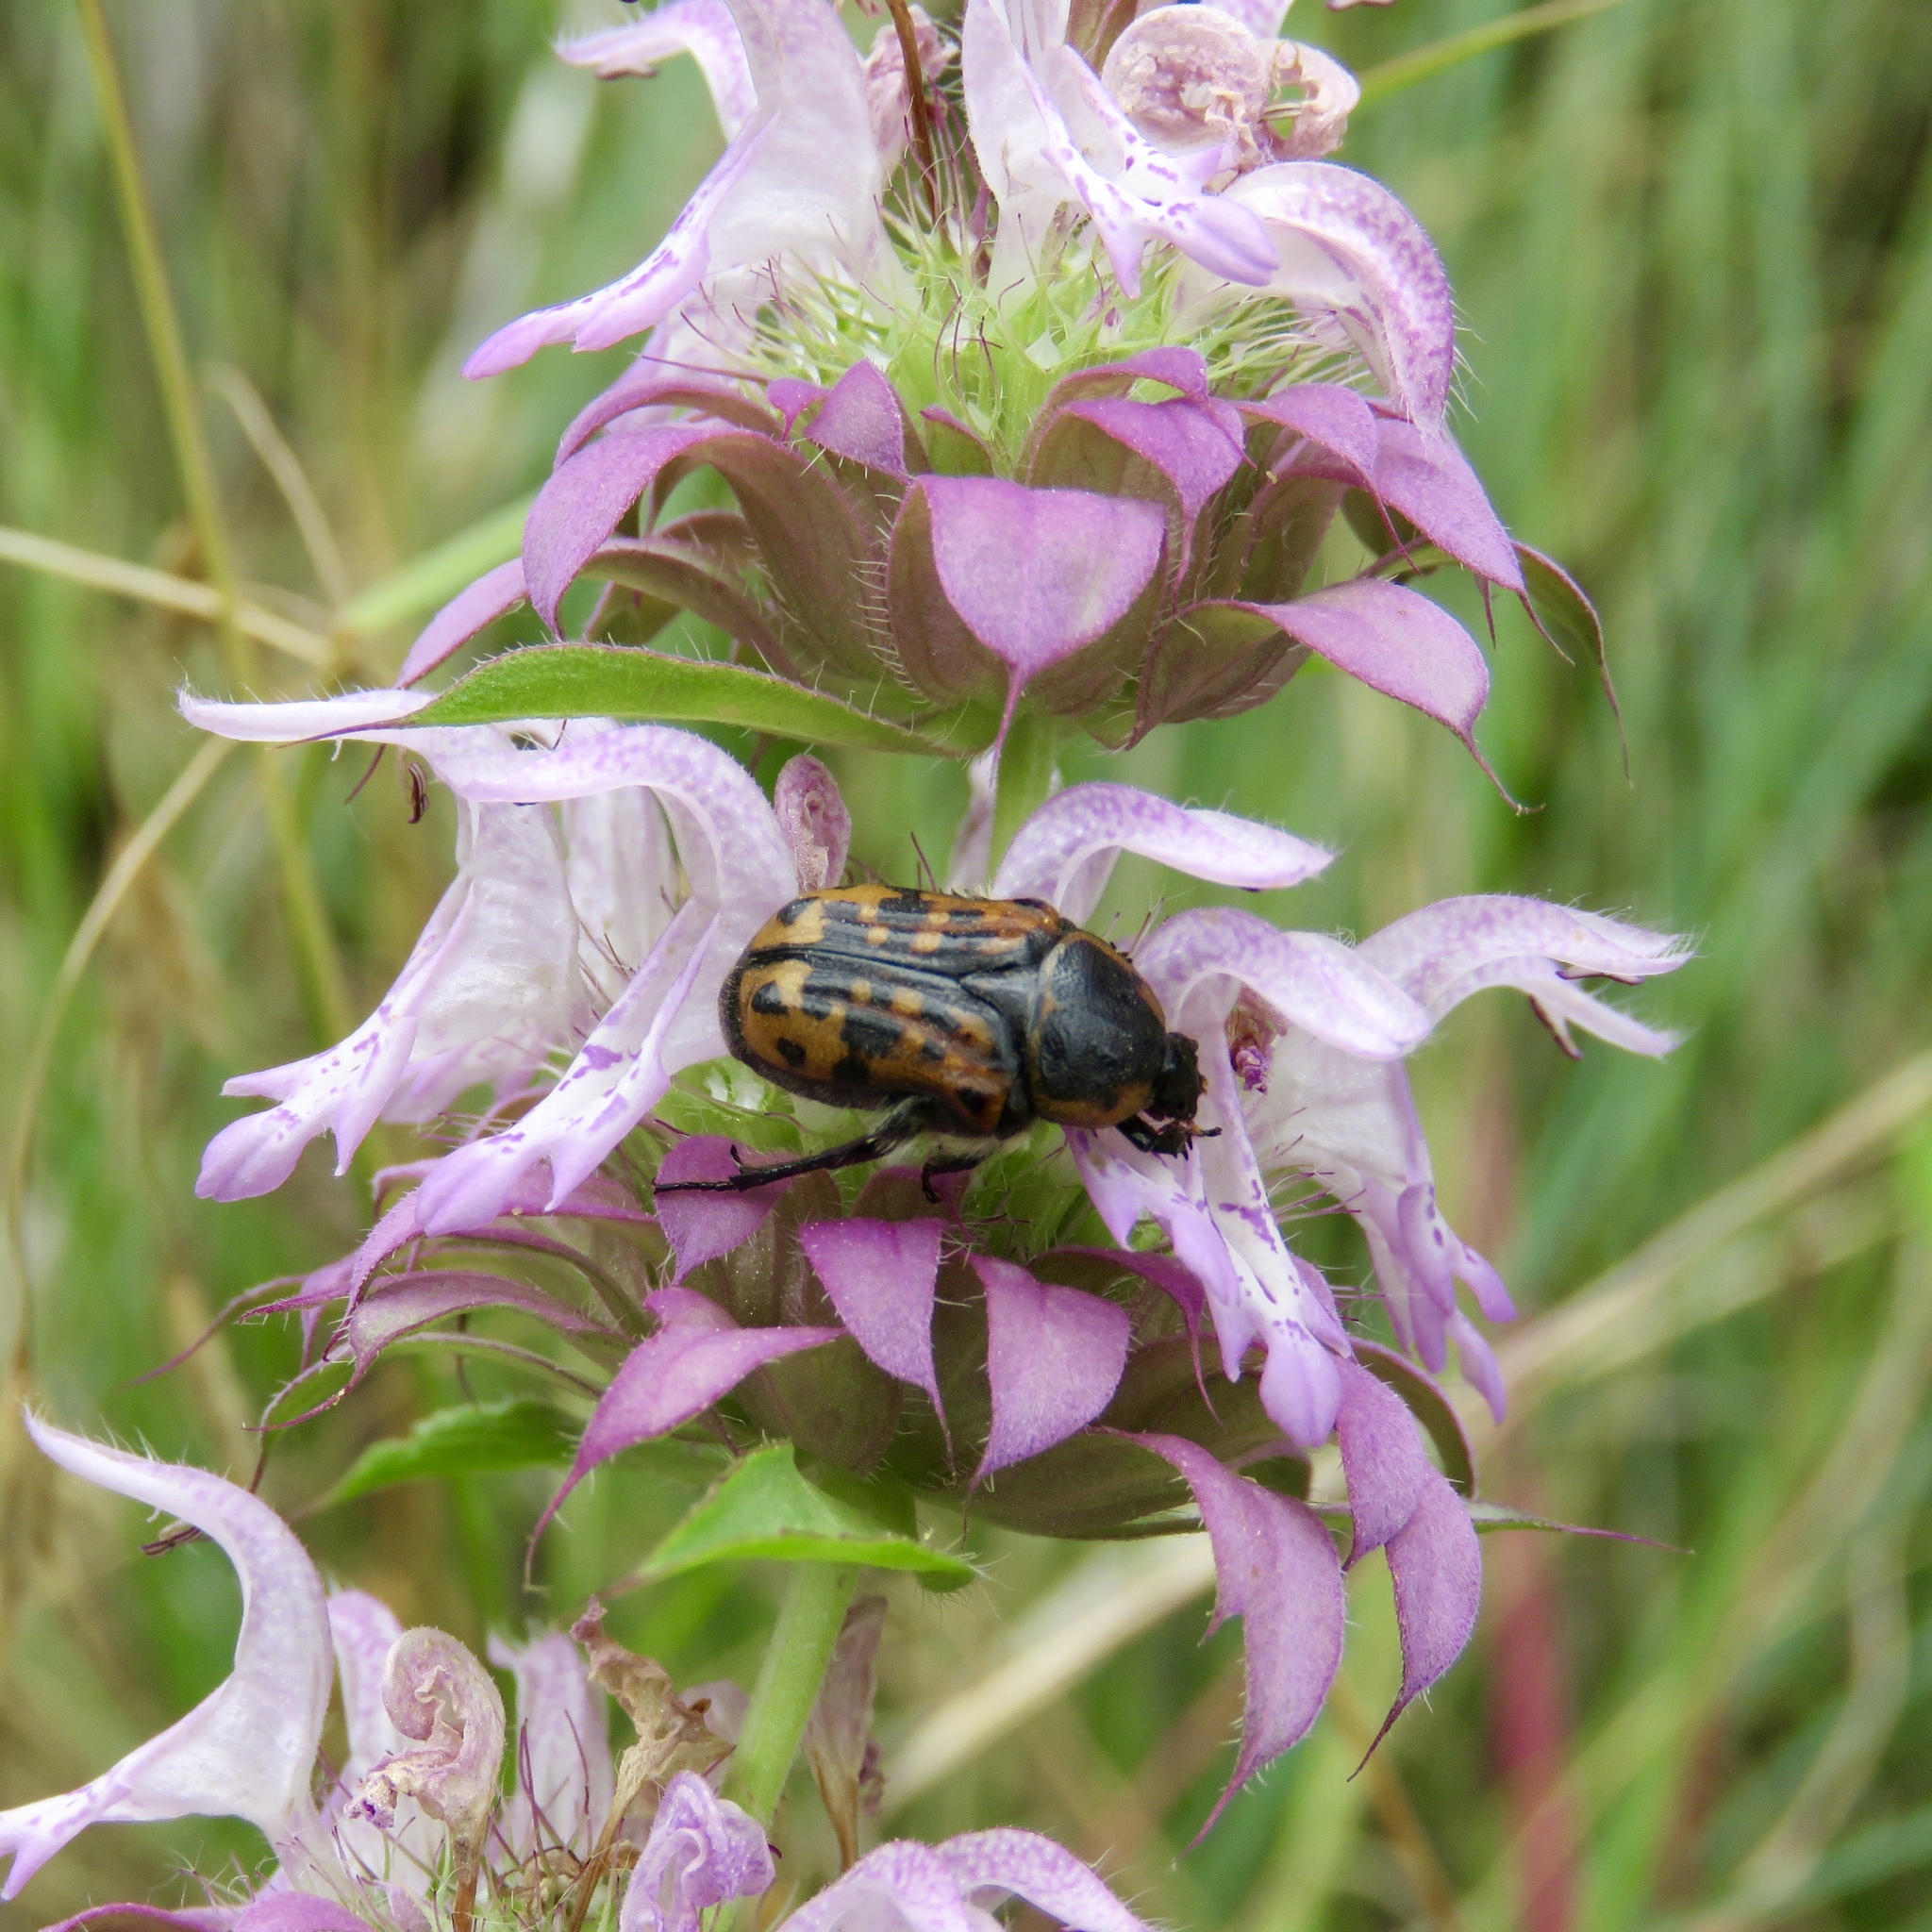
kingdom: Animalia
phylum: Arthropoda
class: Insecta
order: Coleoptera
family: Scarabaeidae
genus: Euphoria
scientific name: Euphoria kernii
